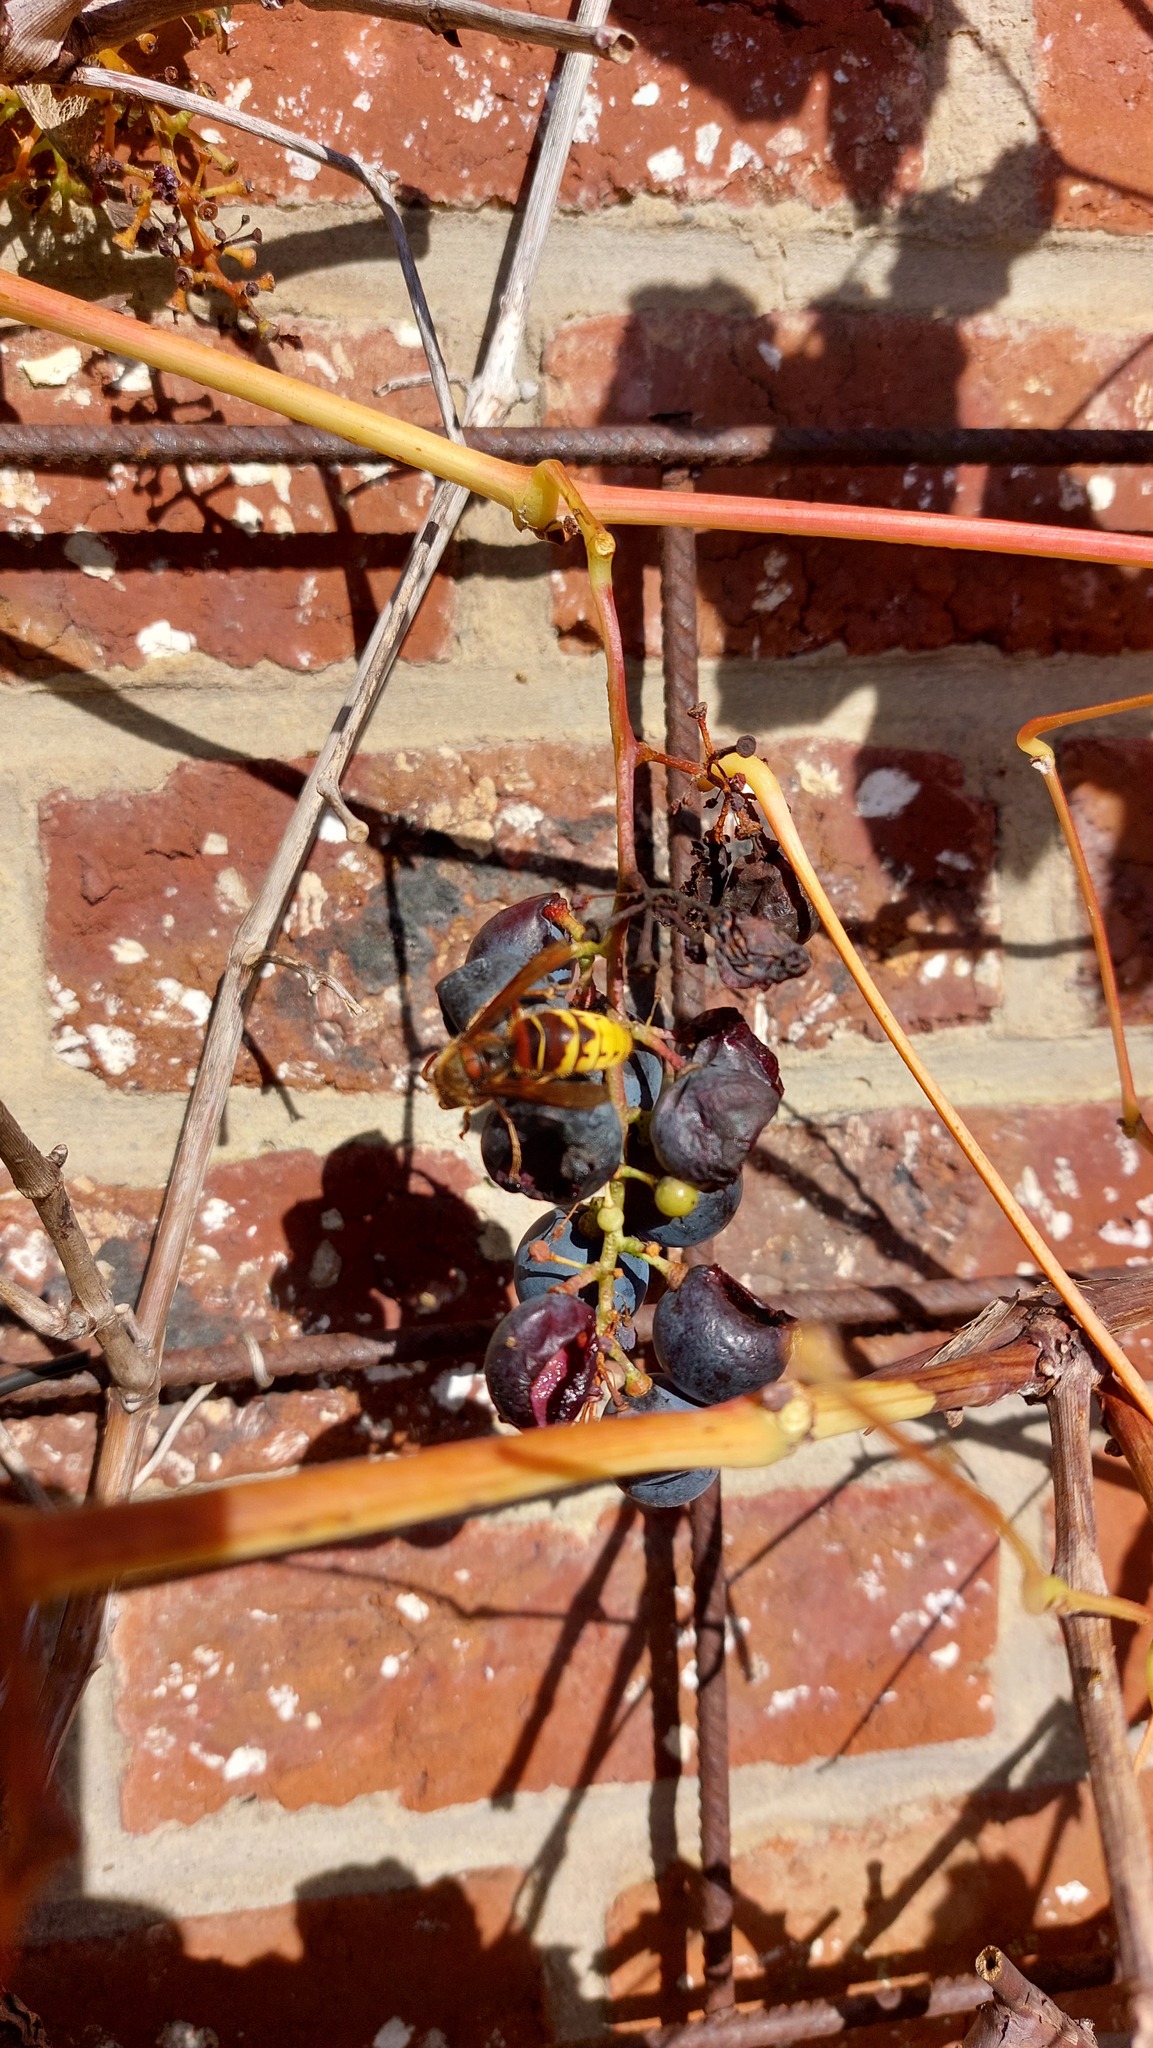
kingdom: Animalia
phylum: Arthropoda
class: Insecta
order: Hymenoptera
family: Vespidae
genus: Vespa
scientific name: Vespa crabro
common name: Hornet
